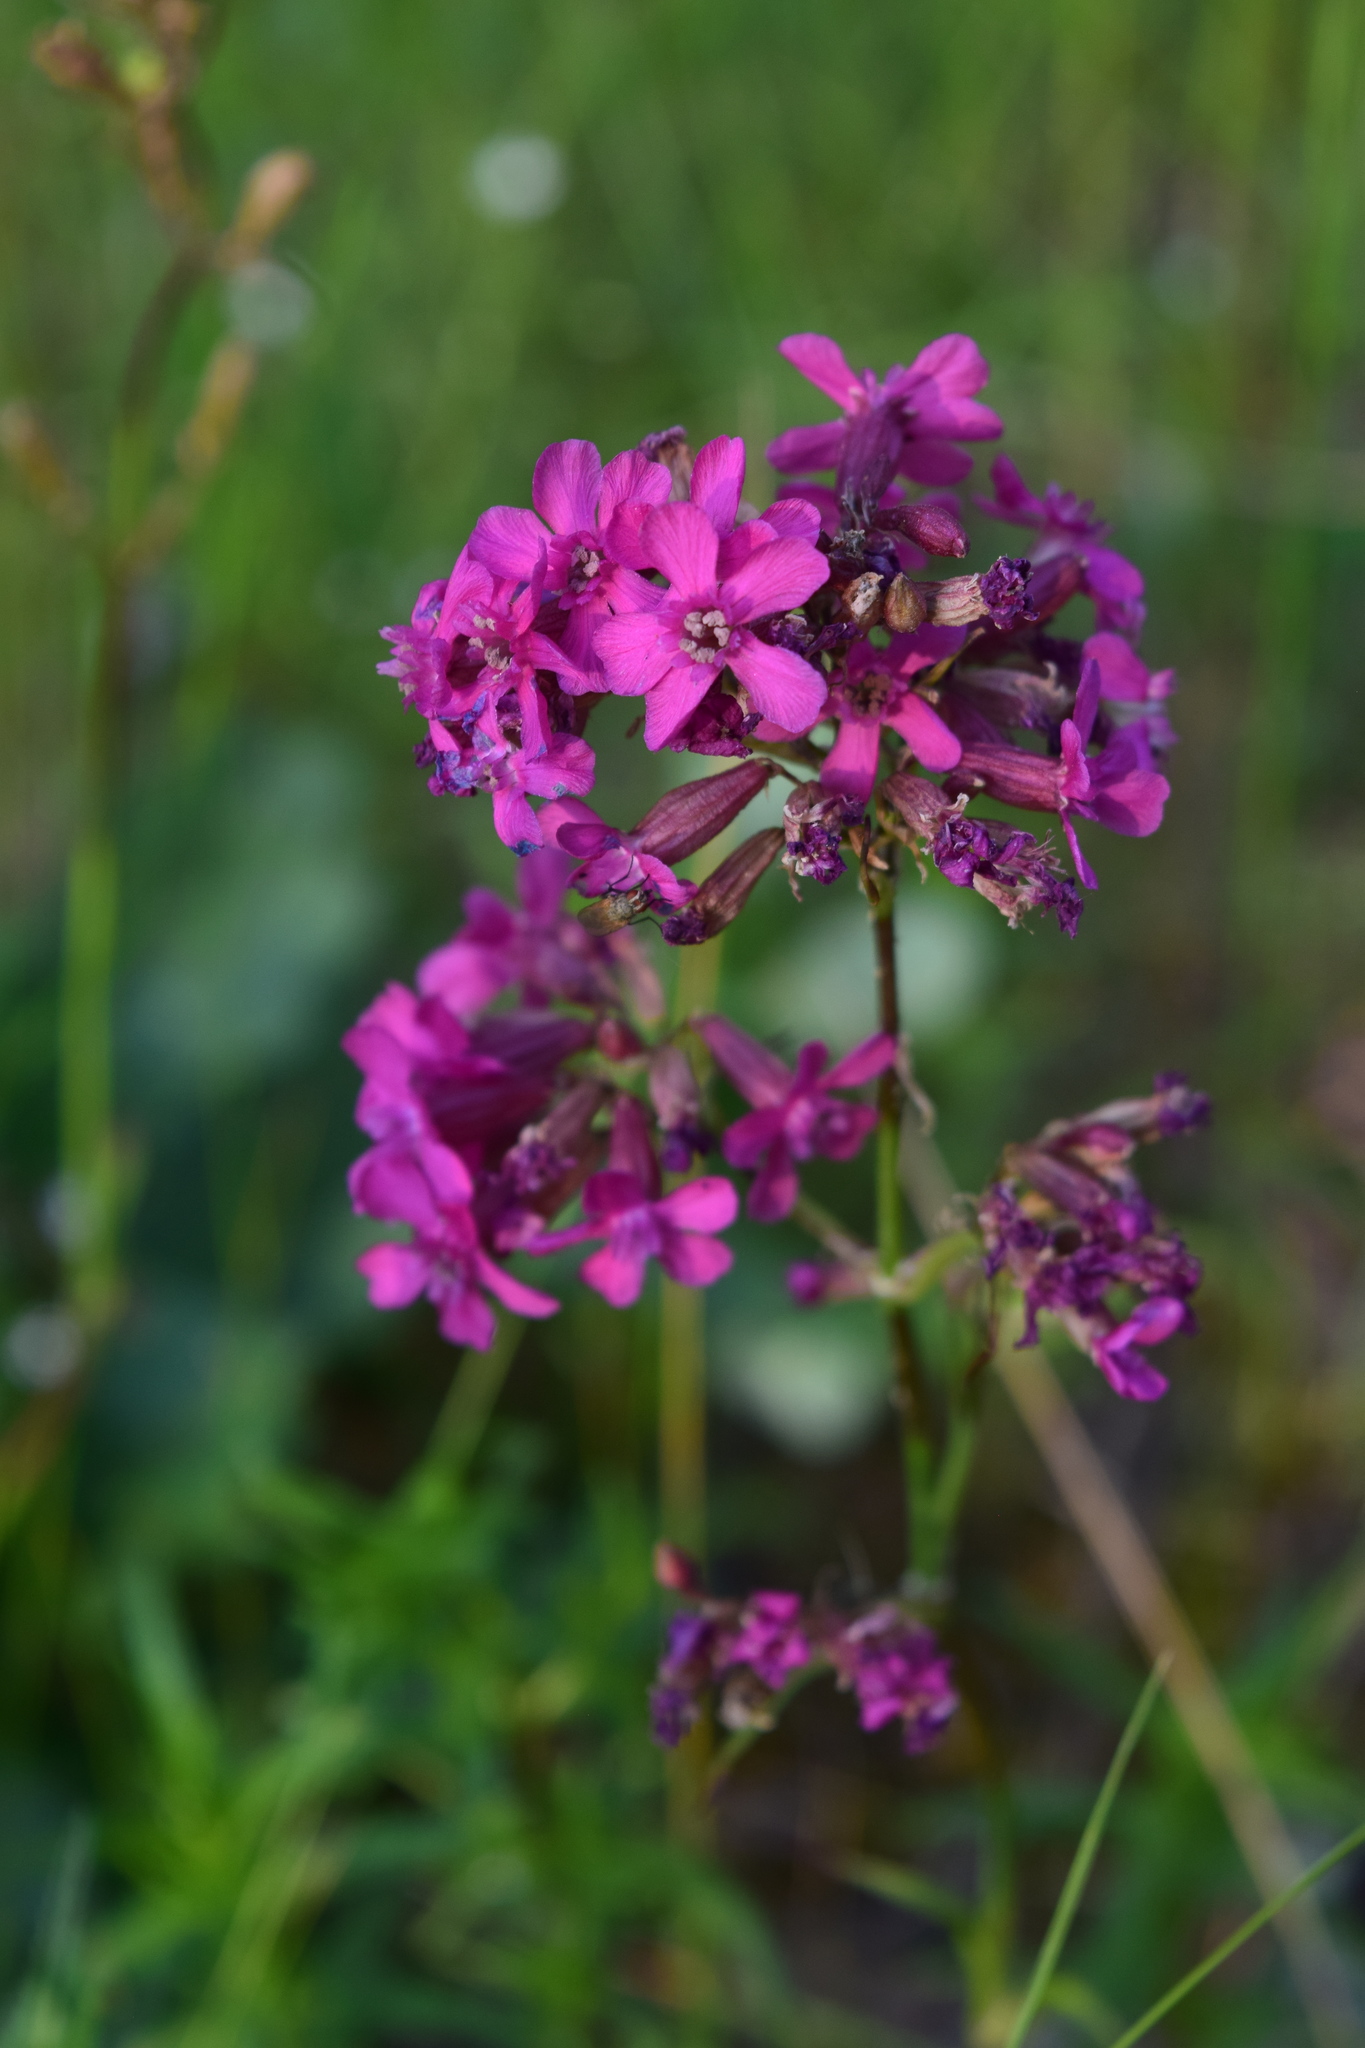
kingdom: Plantae
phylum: Tracheophyta
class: Magnoliopsida
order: Caryophyllales
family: Caryophyllaceae
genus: Viscaria
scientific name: Viscaria vulgaris
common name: Clammy campion
